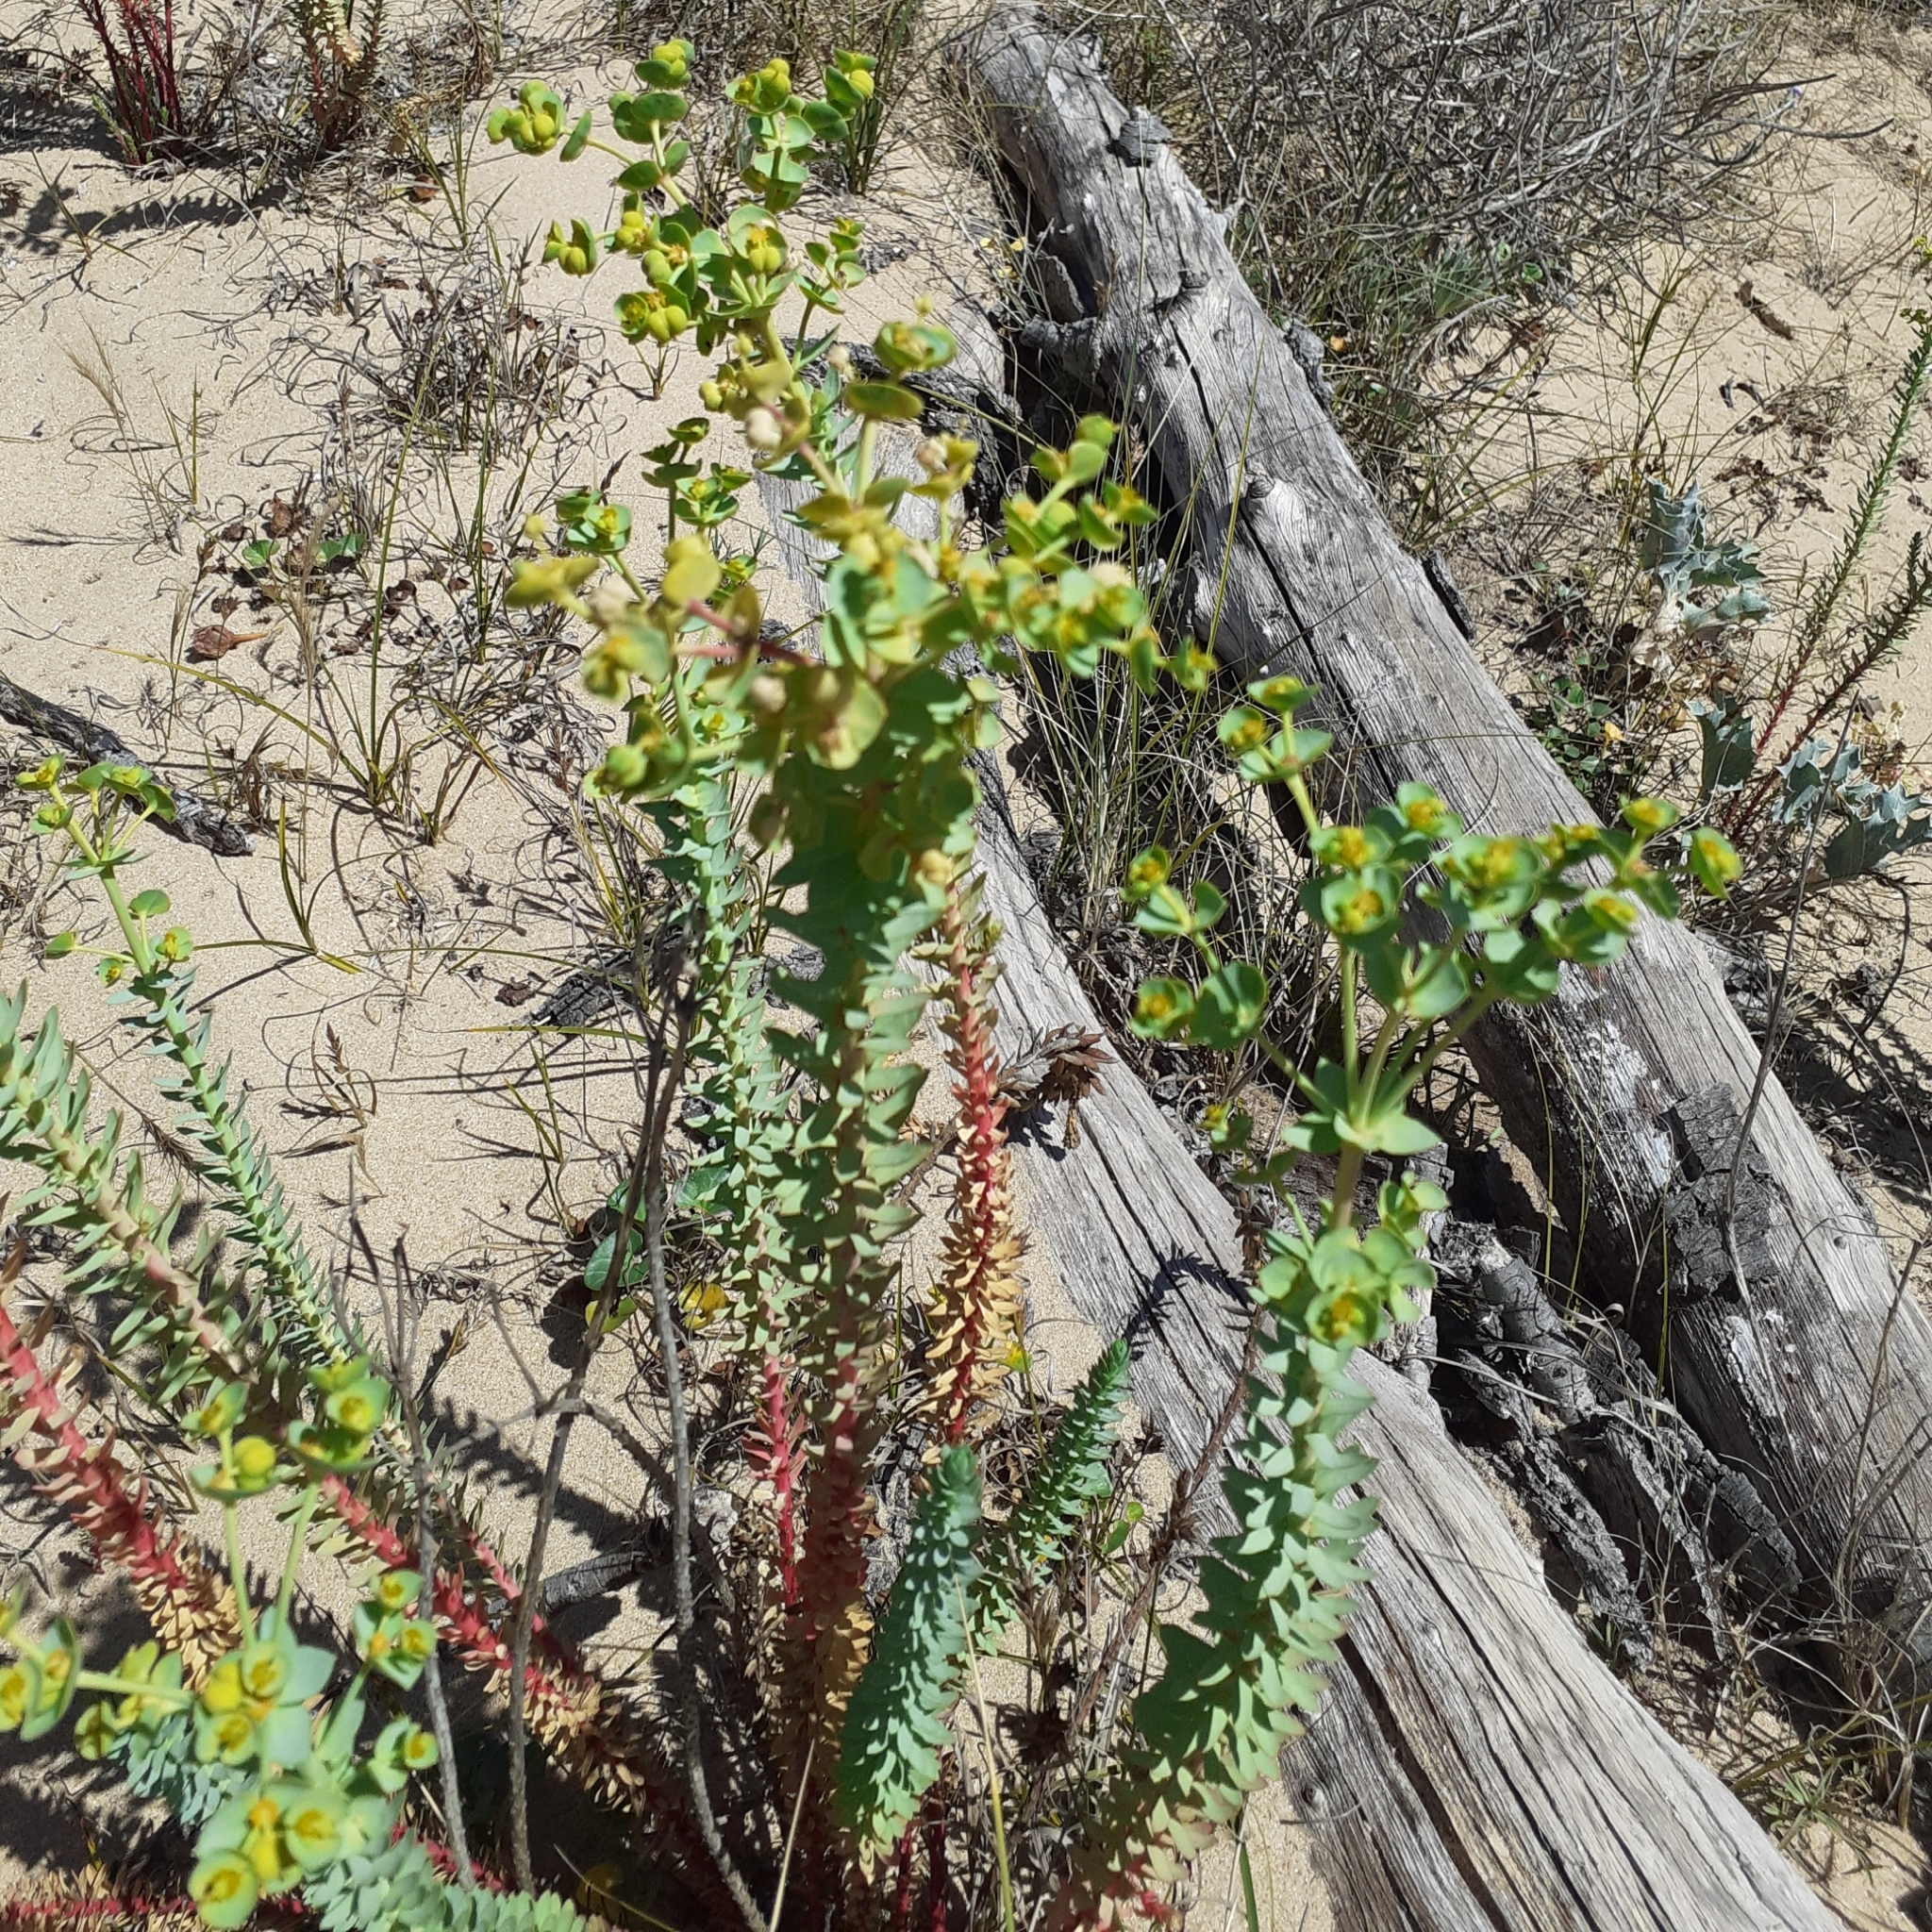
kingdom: Plantae
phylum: Tracheophyta
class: Magnoliopsida
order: Malpighiales
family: Euphorbiaceae
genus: Euphorbia
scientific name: Euphorbia paralias
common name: Sea spurge
